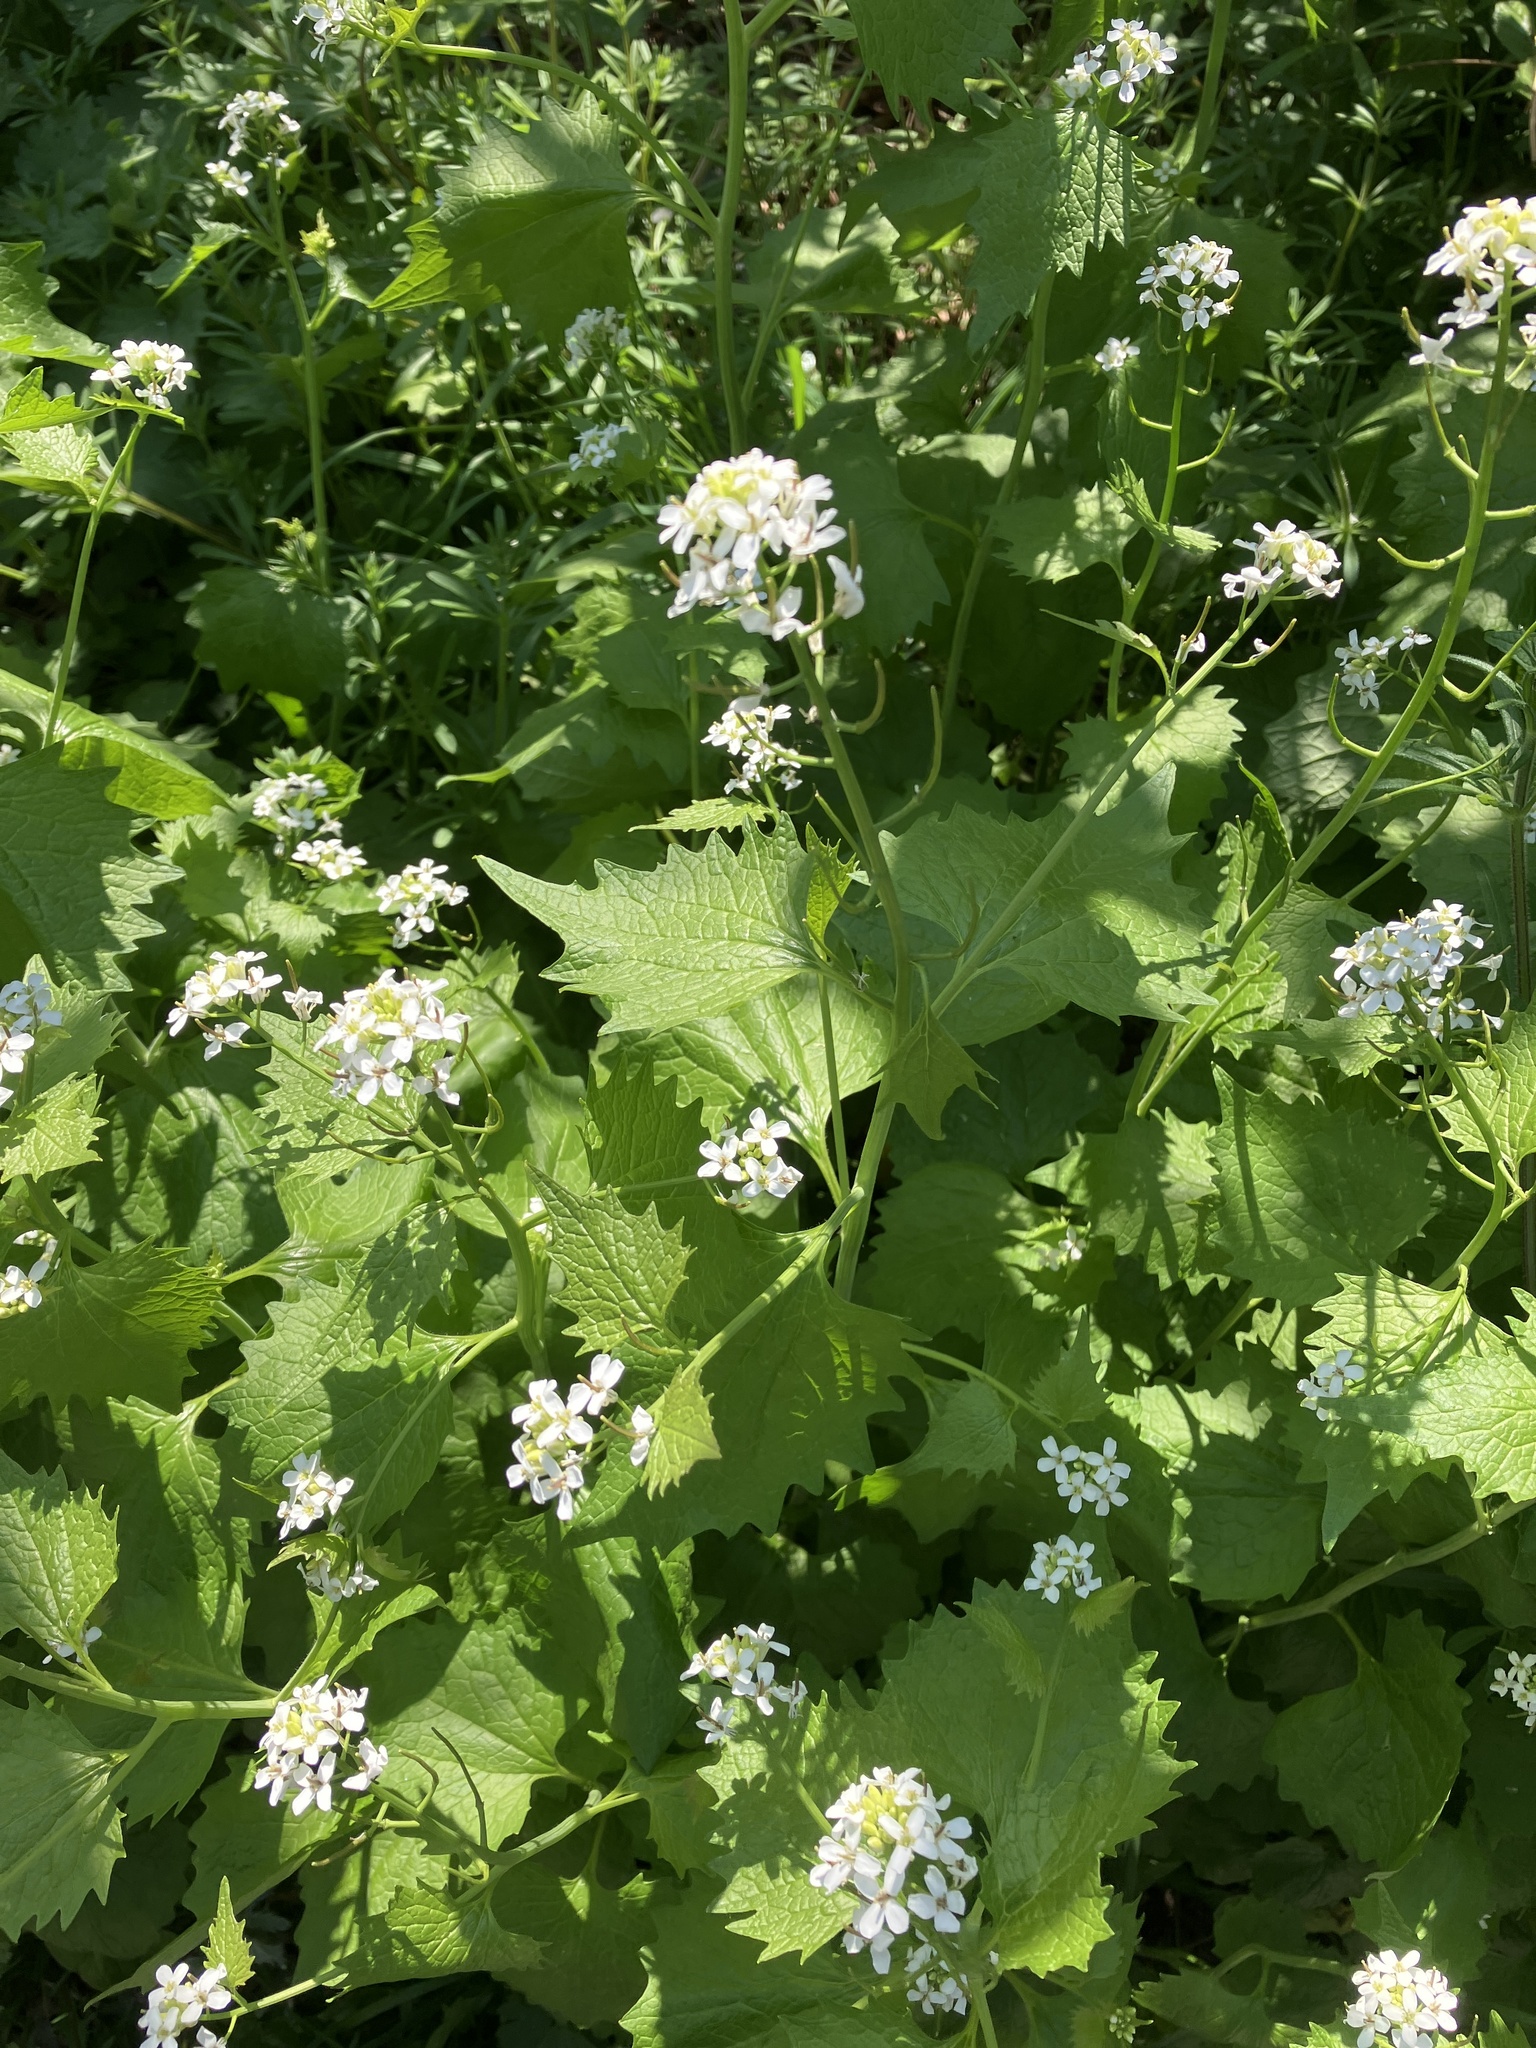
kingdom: Plantae
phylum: Tracheophyta
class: Magnoliopsida
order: Brassicales
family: Brassicaceae
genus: Alliaria
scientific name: Alliaria petiolata
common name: Garlic mustard
